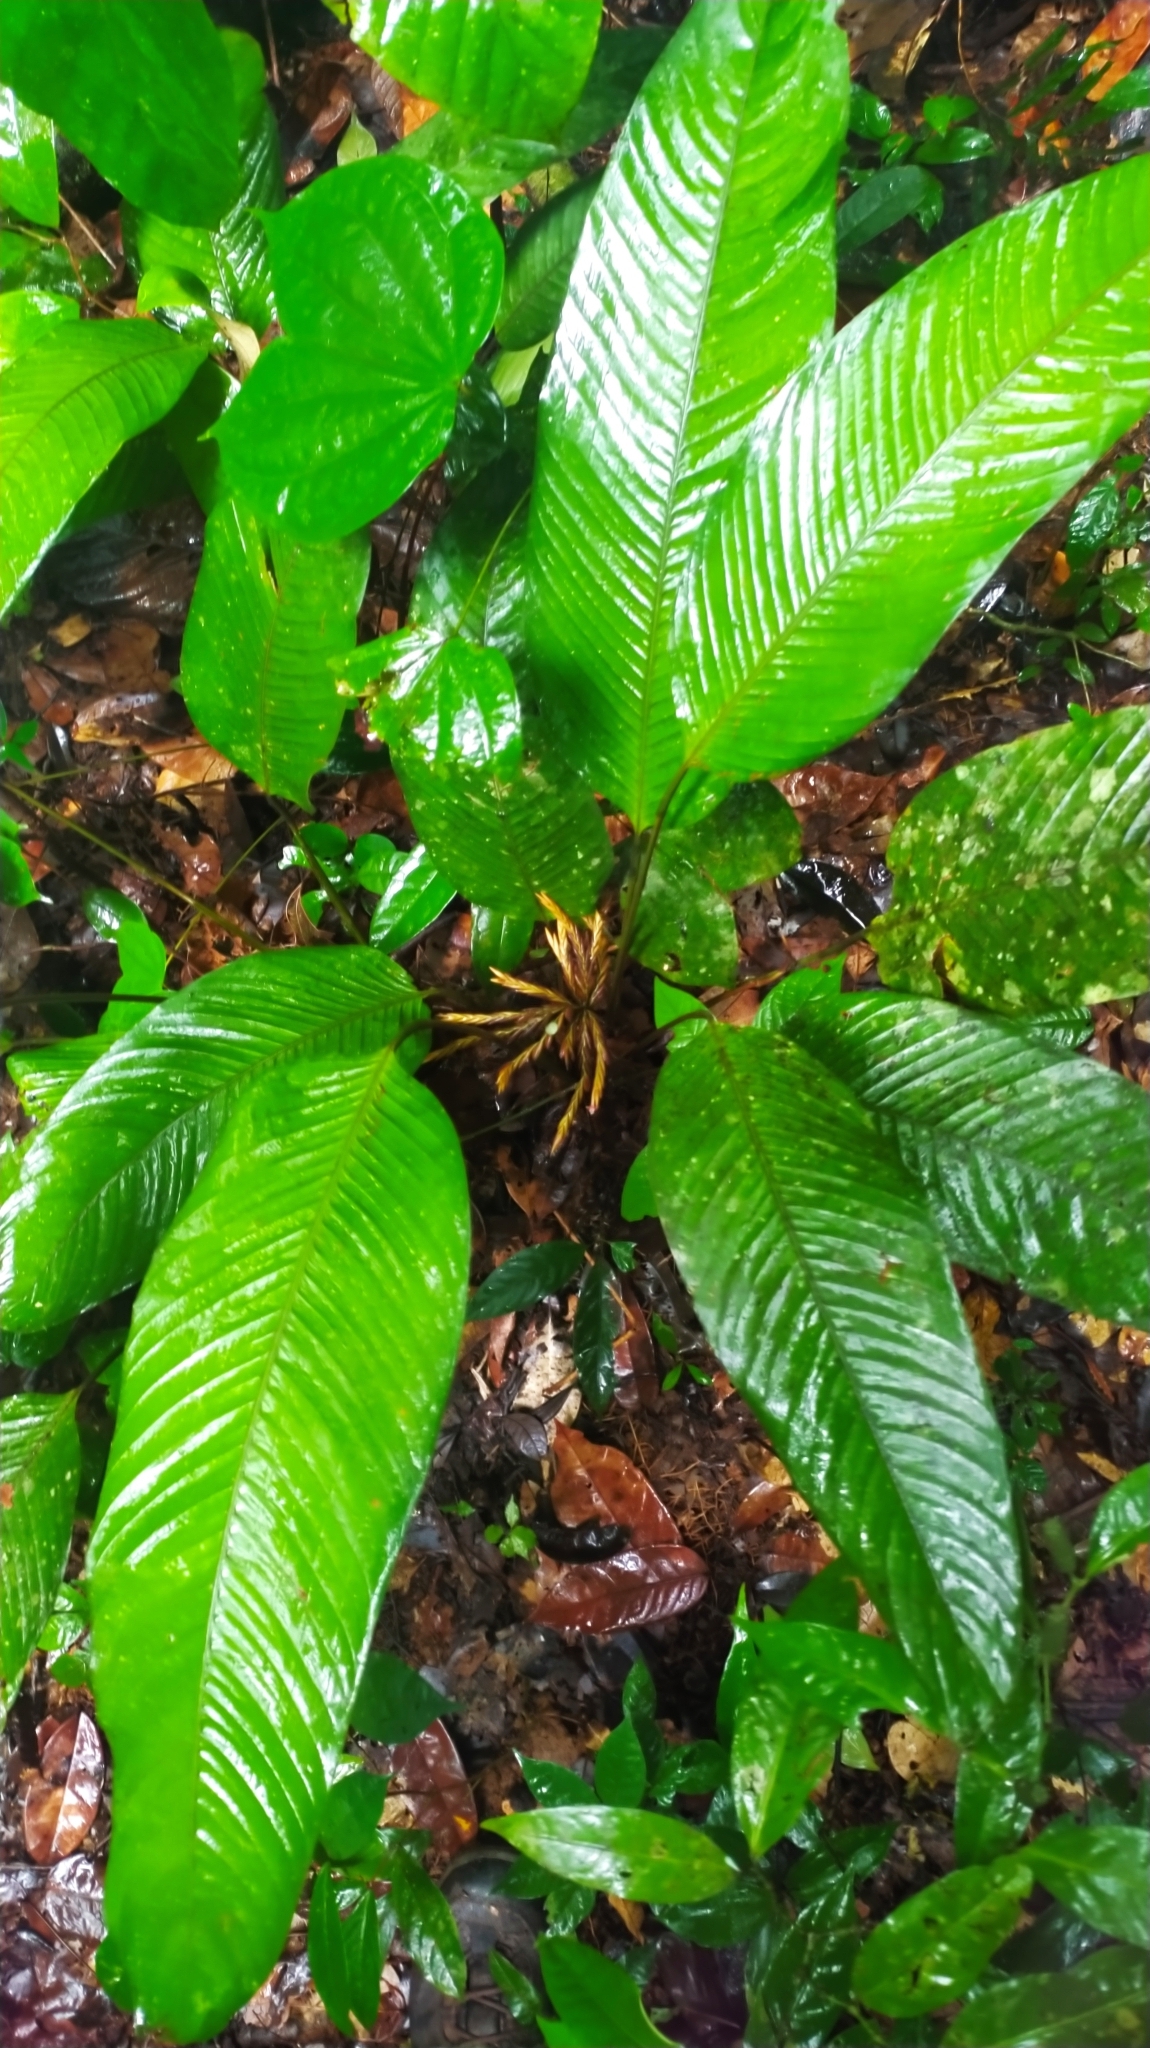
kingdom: Plantae
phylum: Tracheophyta
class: Liliopsida
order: Zingiberales
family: Marantaceae
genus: Monotagma
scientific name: Monotagma contractum
